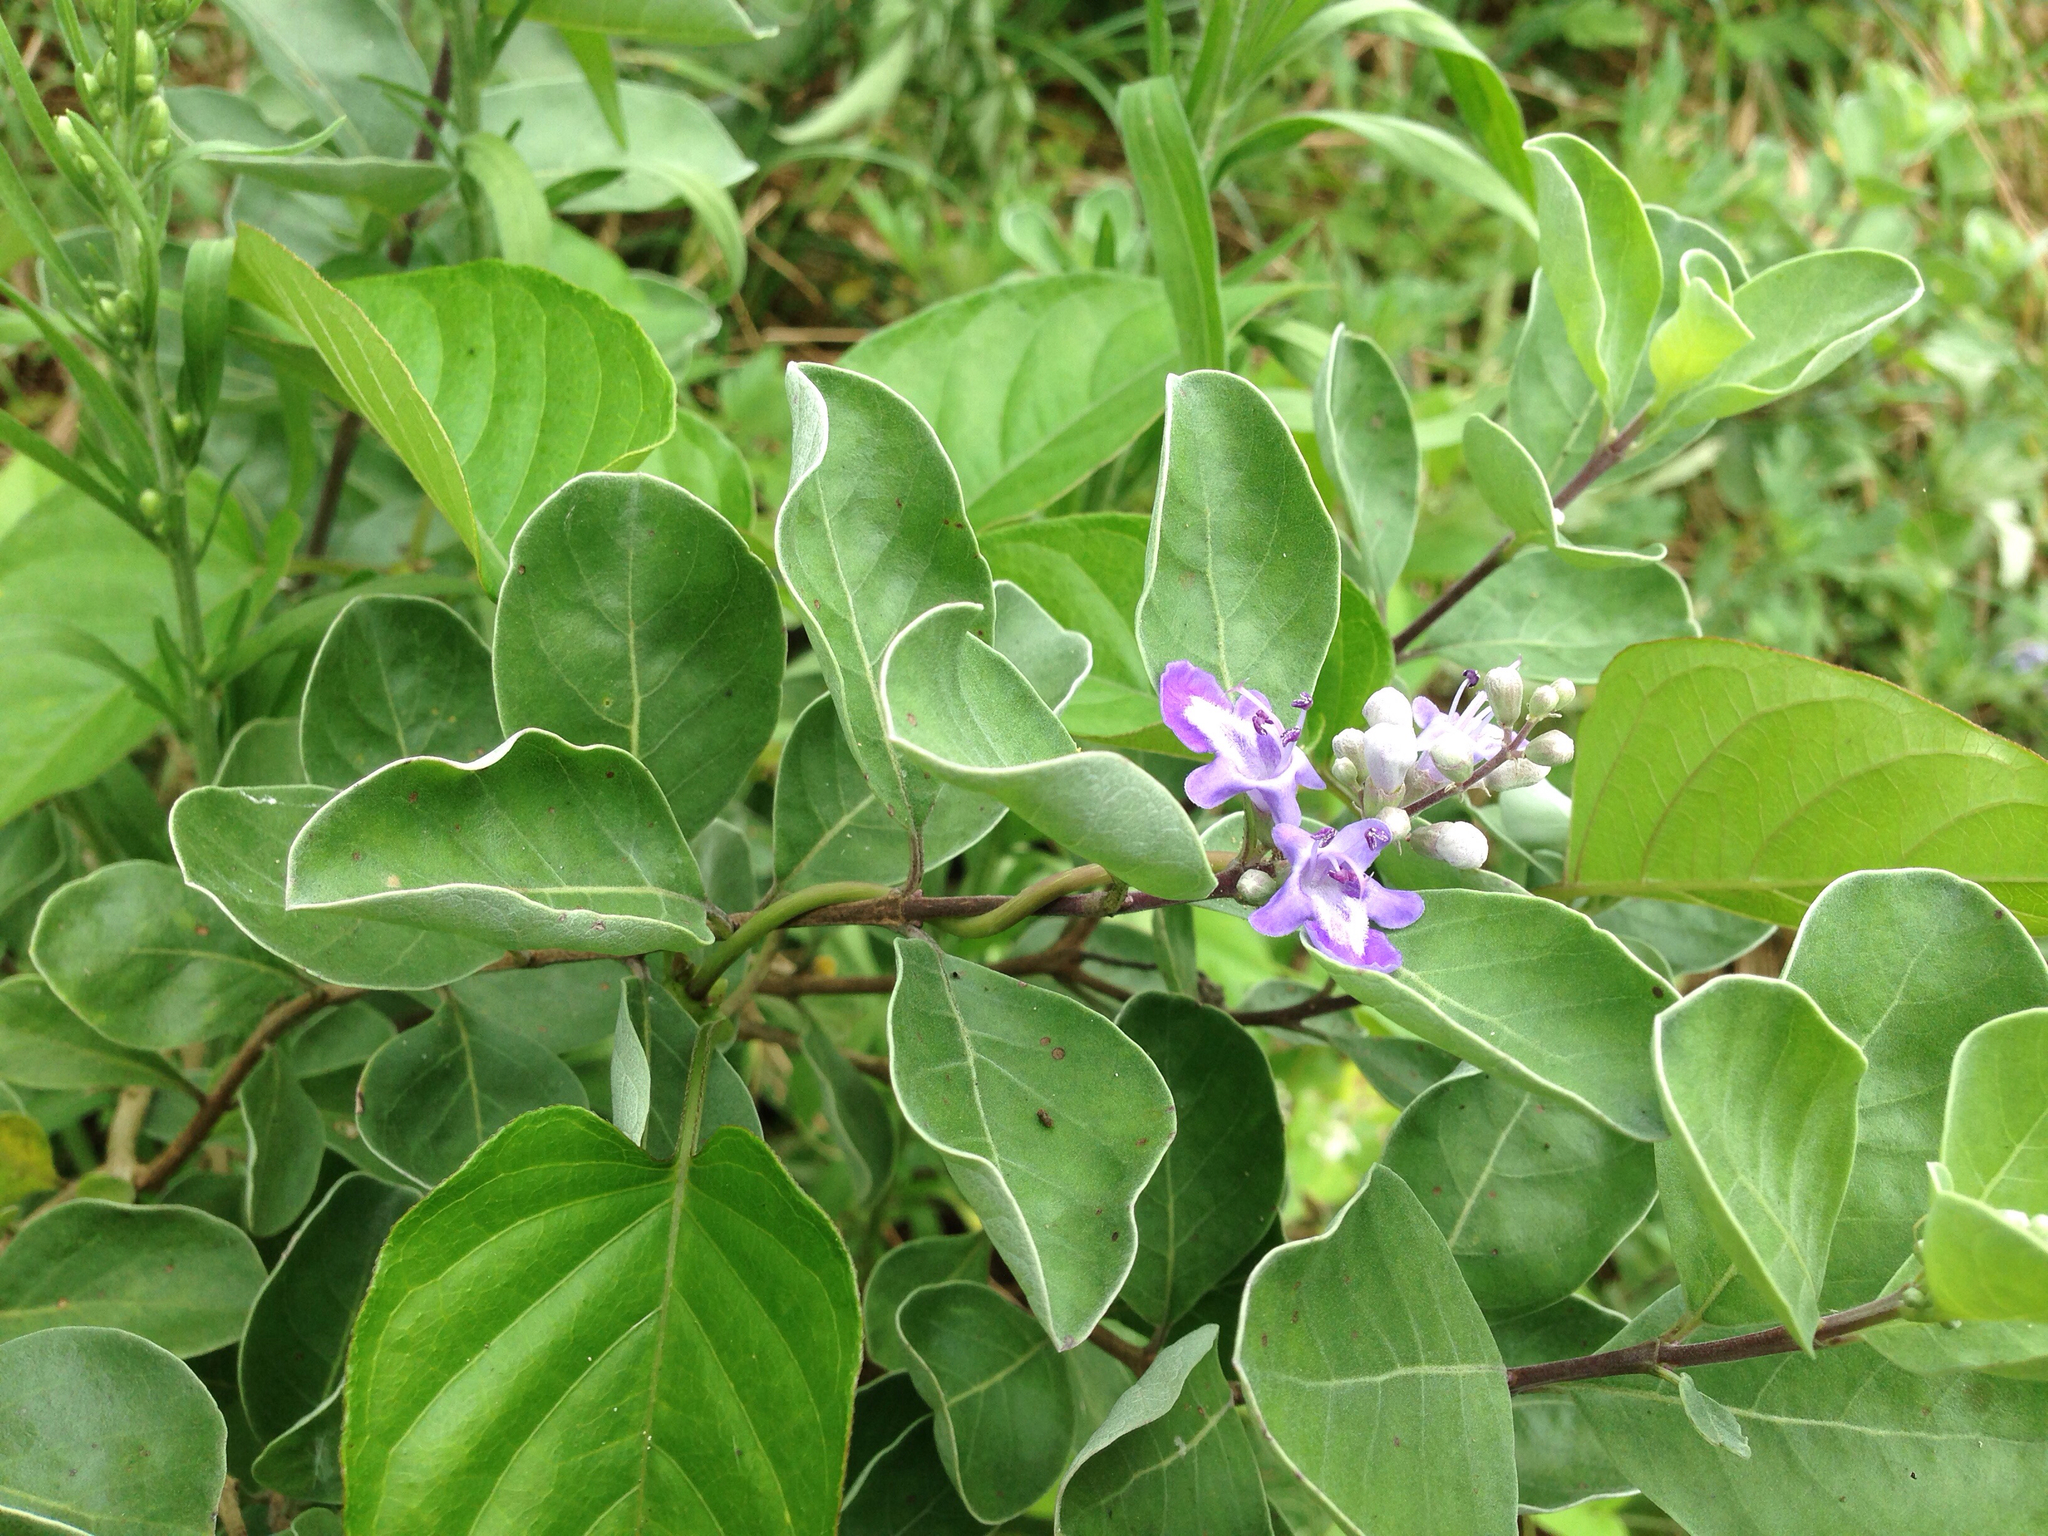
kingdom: Plantae
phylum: Tracheophyta
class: Magnoliopsida
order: Lamiales
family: Lamiaceae
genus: Vitex
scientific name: Vitex rotundifolia
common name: Beach vitex
